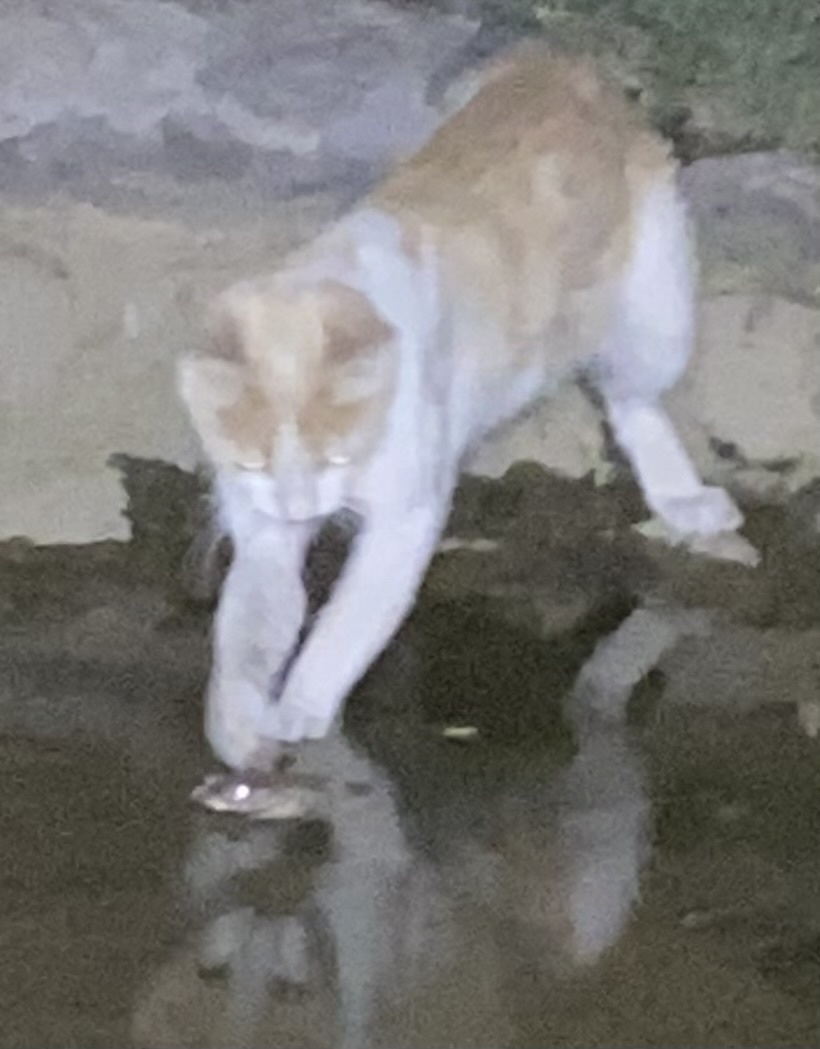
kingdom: Animalia
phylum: Chordata
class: Amphibia
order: Anura
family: Bufonidae
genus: Bufotes
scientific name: Bufotes viridis
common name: European green toad
